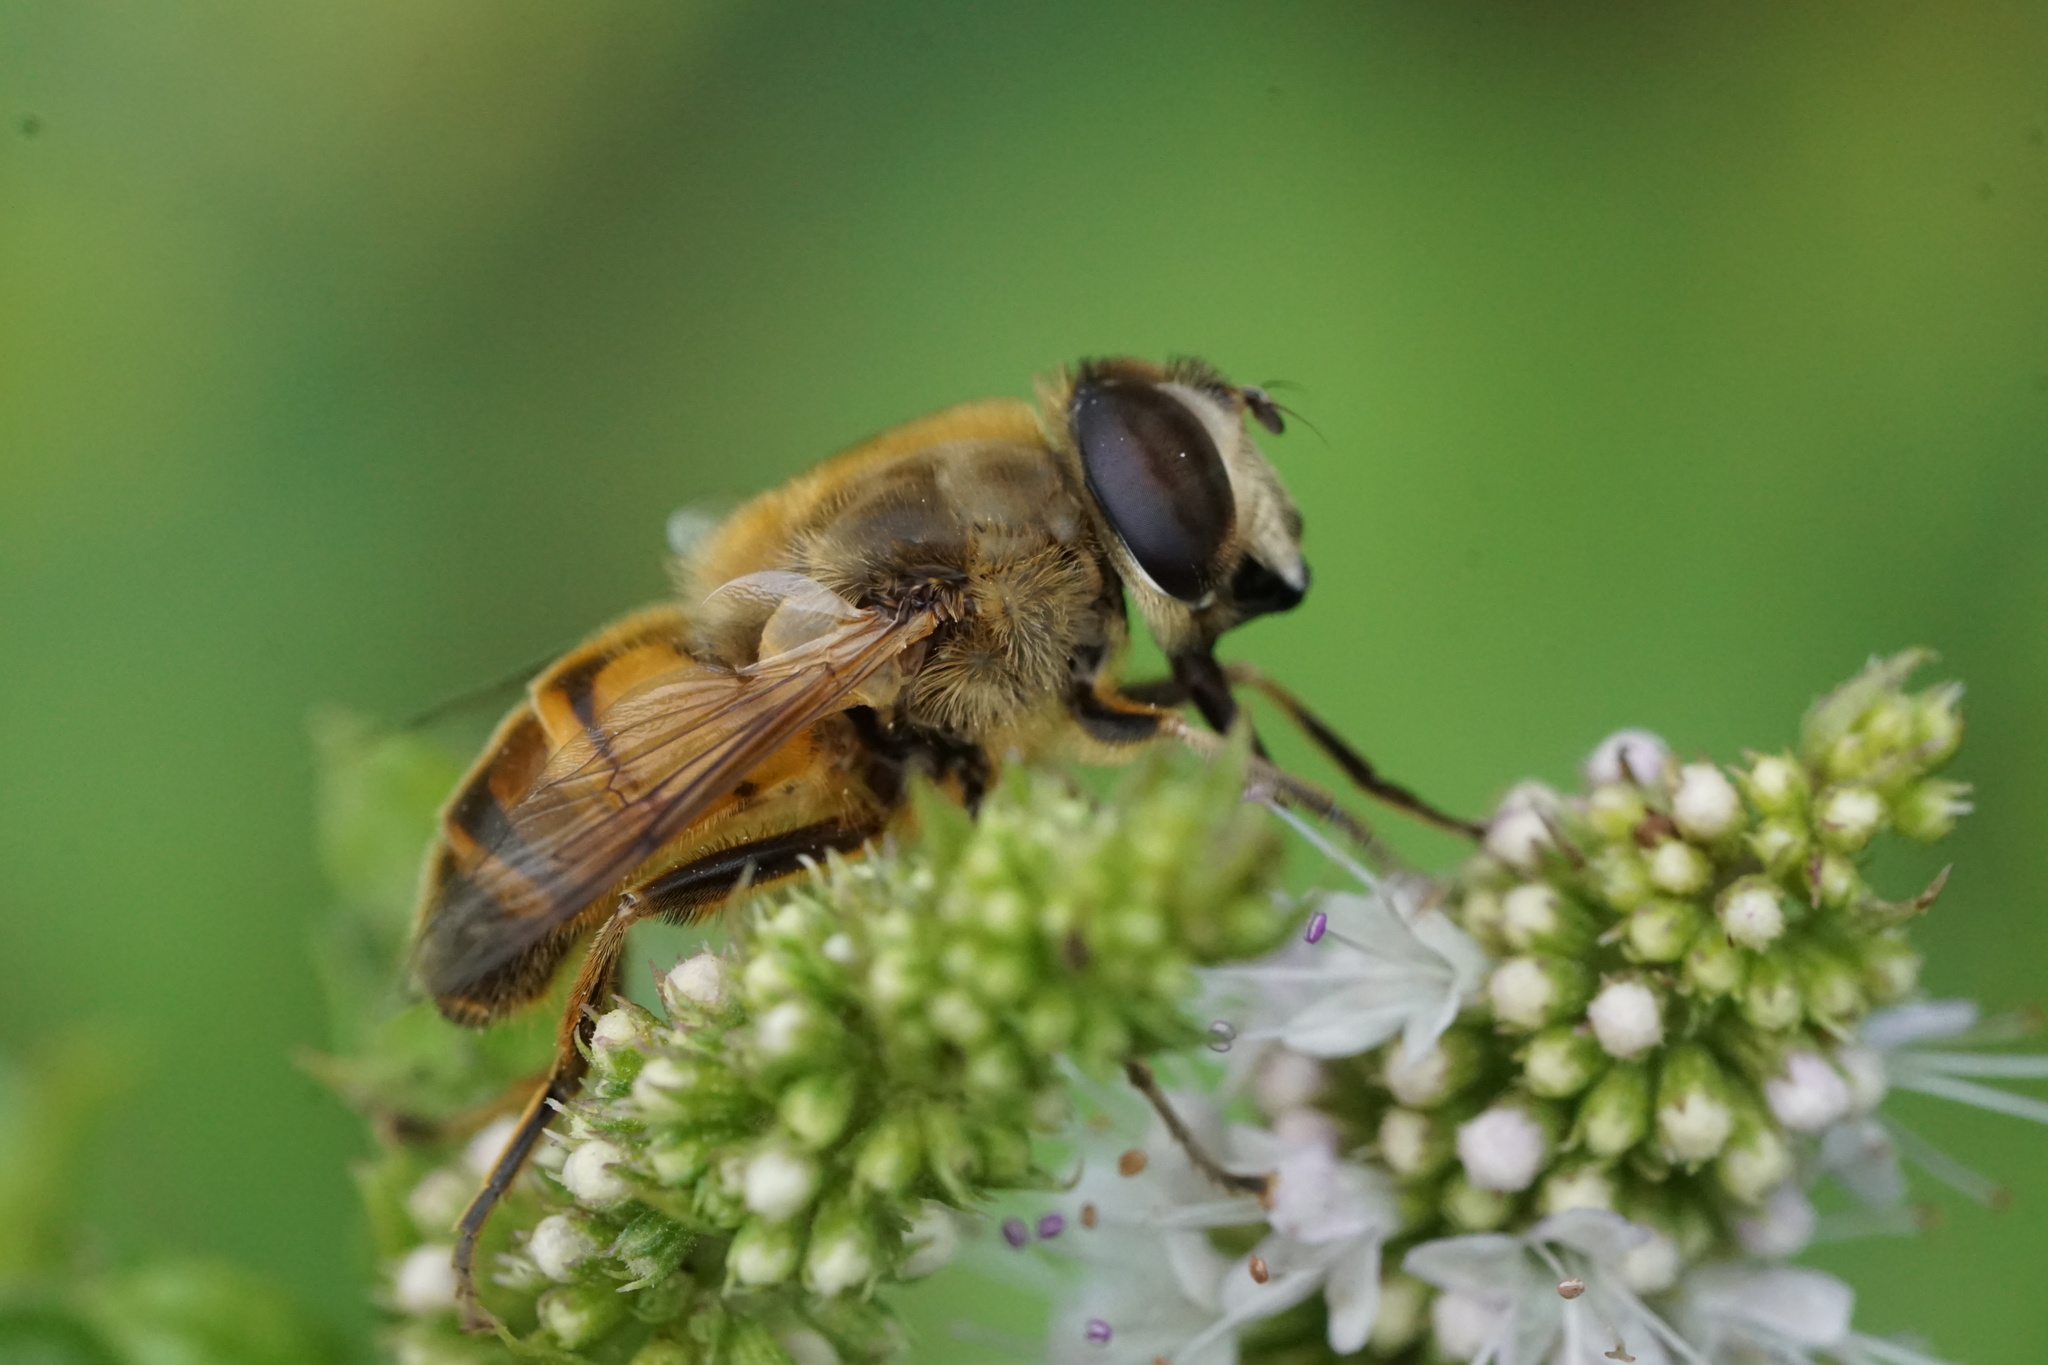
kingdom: Animalia
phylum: Arthropoda
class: Insecta
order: Diptera
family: Syrphidae
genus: Eristalis
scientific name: Eristalis tenax
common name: Drone fly
